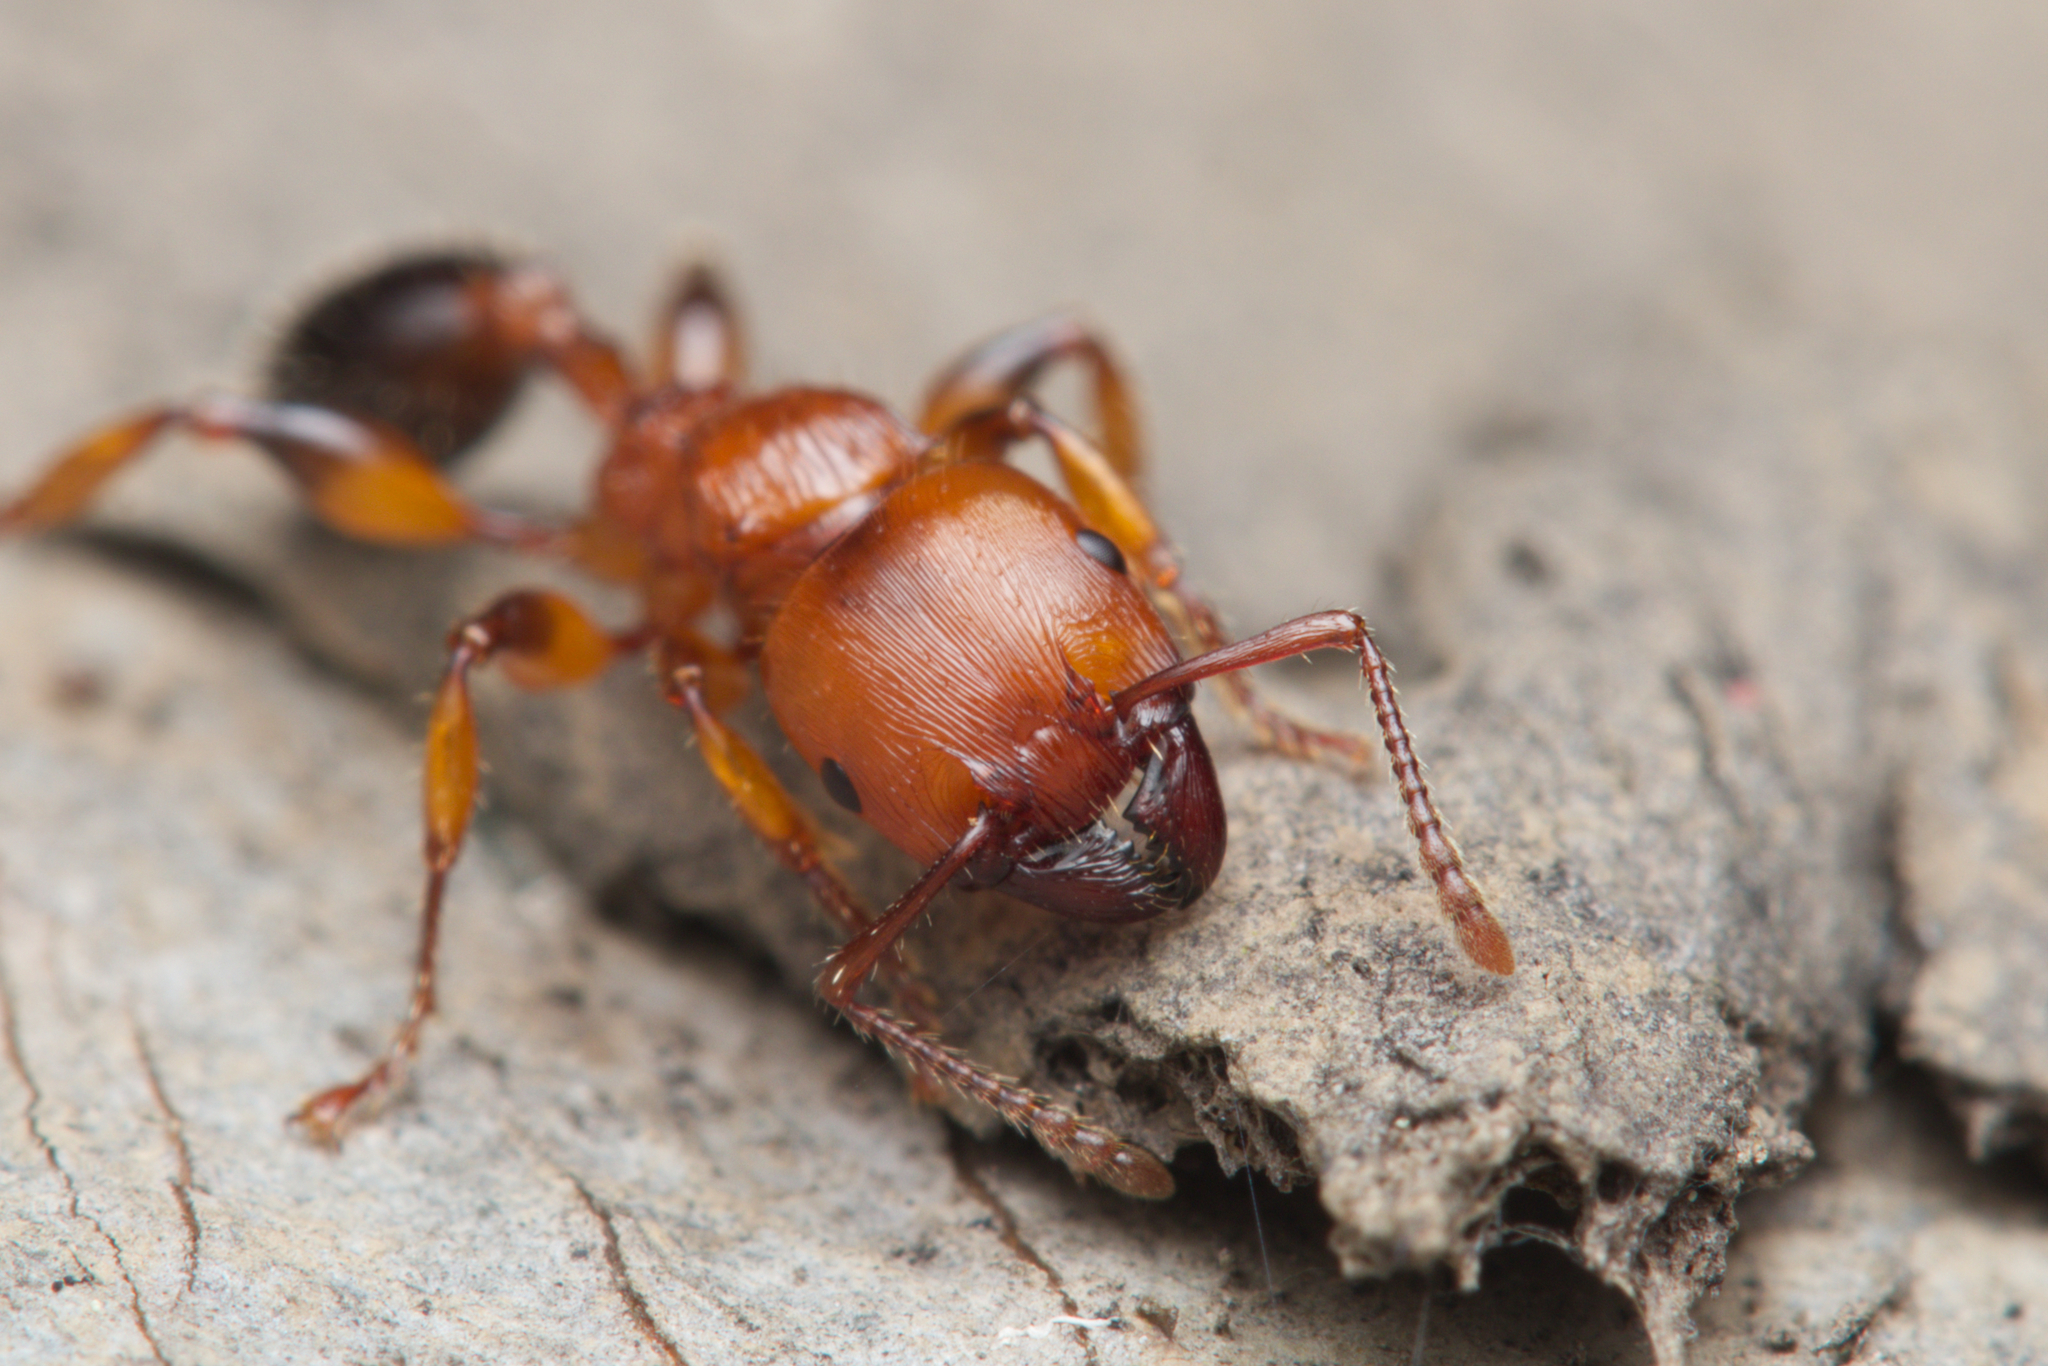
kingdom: Animalia
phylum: Arthropoda
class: Insecta
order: Hymenoptera
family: Formicidae
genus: Podomyrma
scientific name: Podomyrma gratiosa
